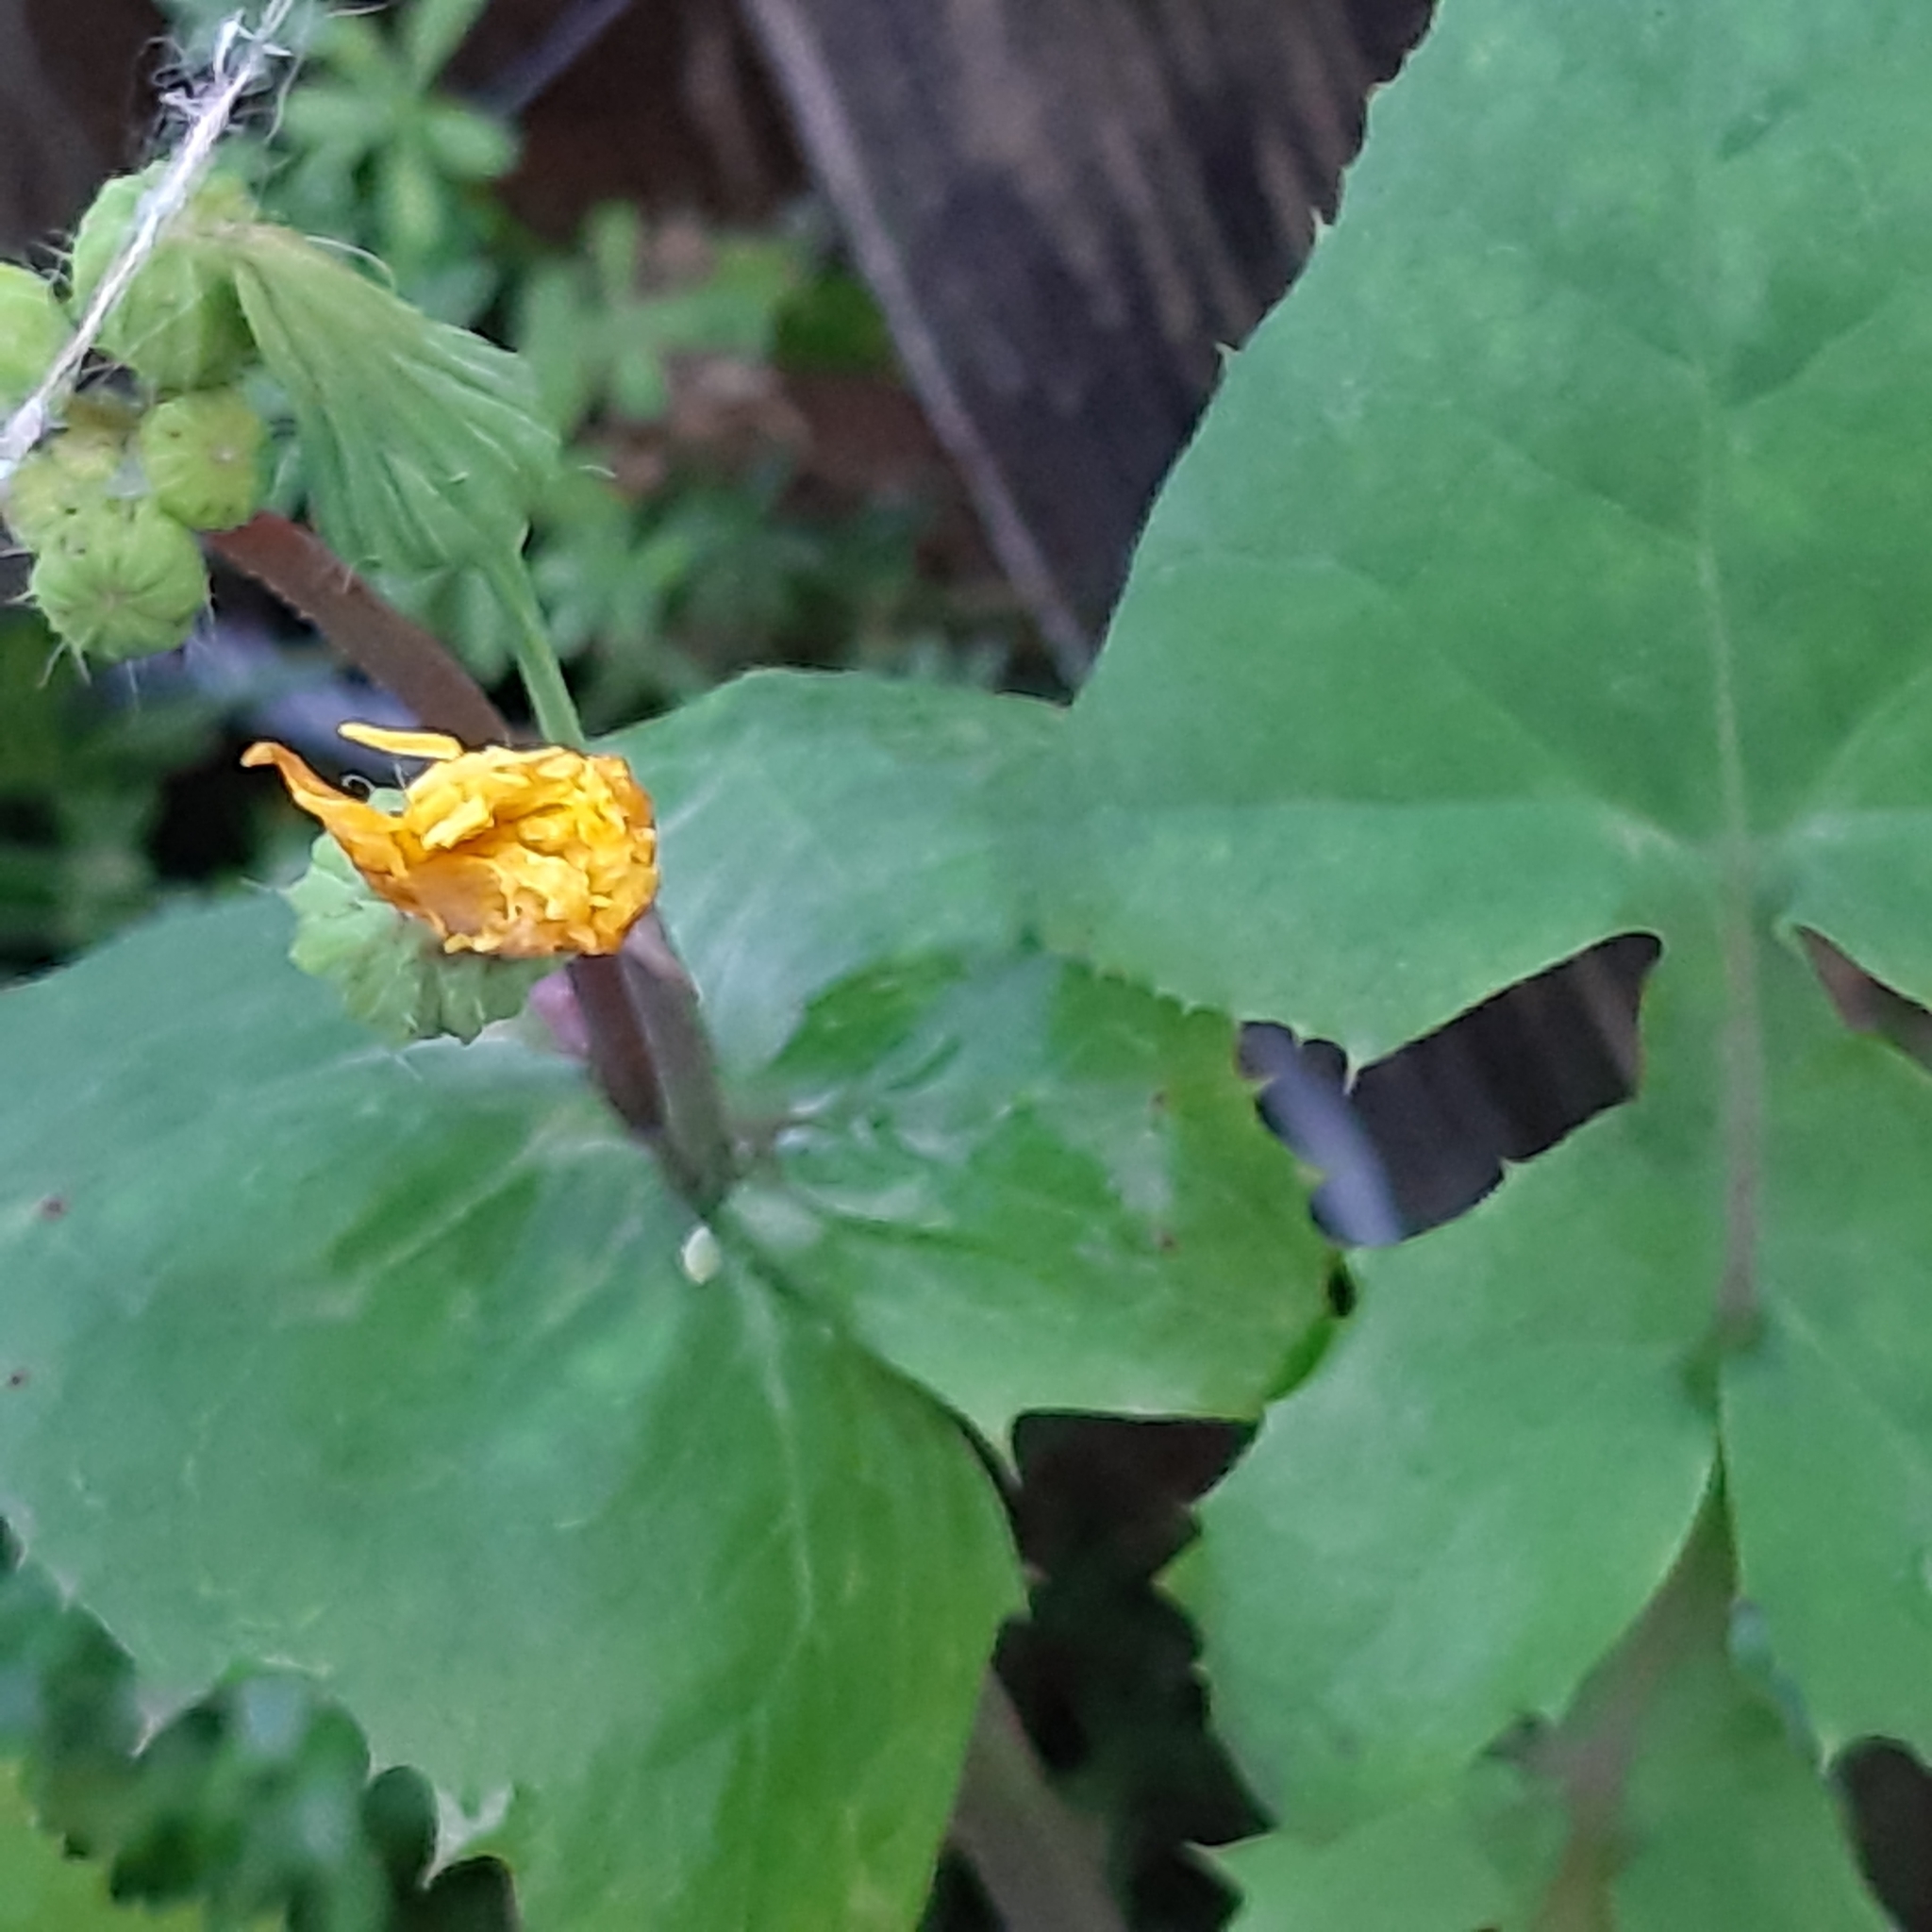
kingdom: Plantae
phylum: Tracheophyta
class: Magnoliopsida
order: Asterales
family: Asteraceae
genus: Sonchus
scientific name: Sonchus oleraceus
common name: Common sowthistle
